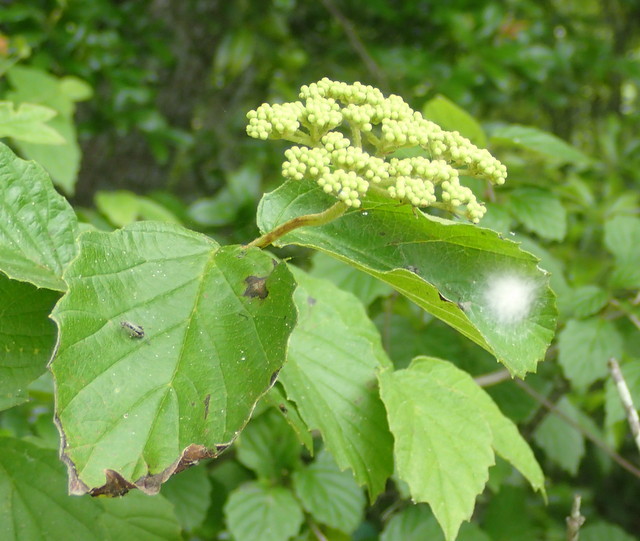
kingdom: Plantae
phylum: Tracheophyta
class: Magnoliopsida
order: Dipsacales
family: Viburnaceae
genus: Viburnum
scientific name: Viburnum scabrellum
